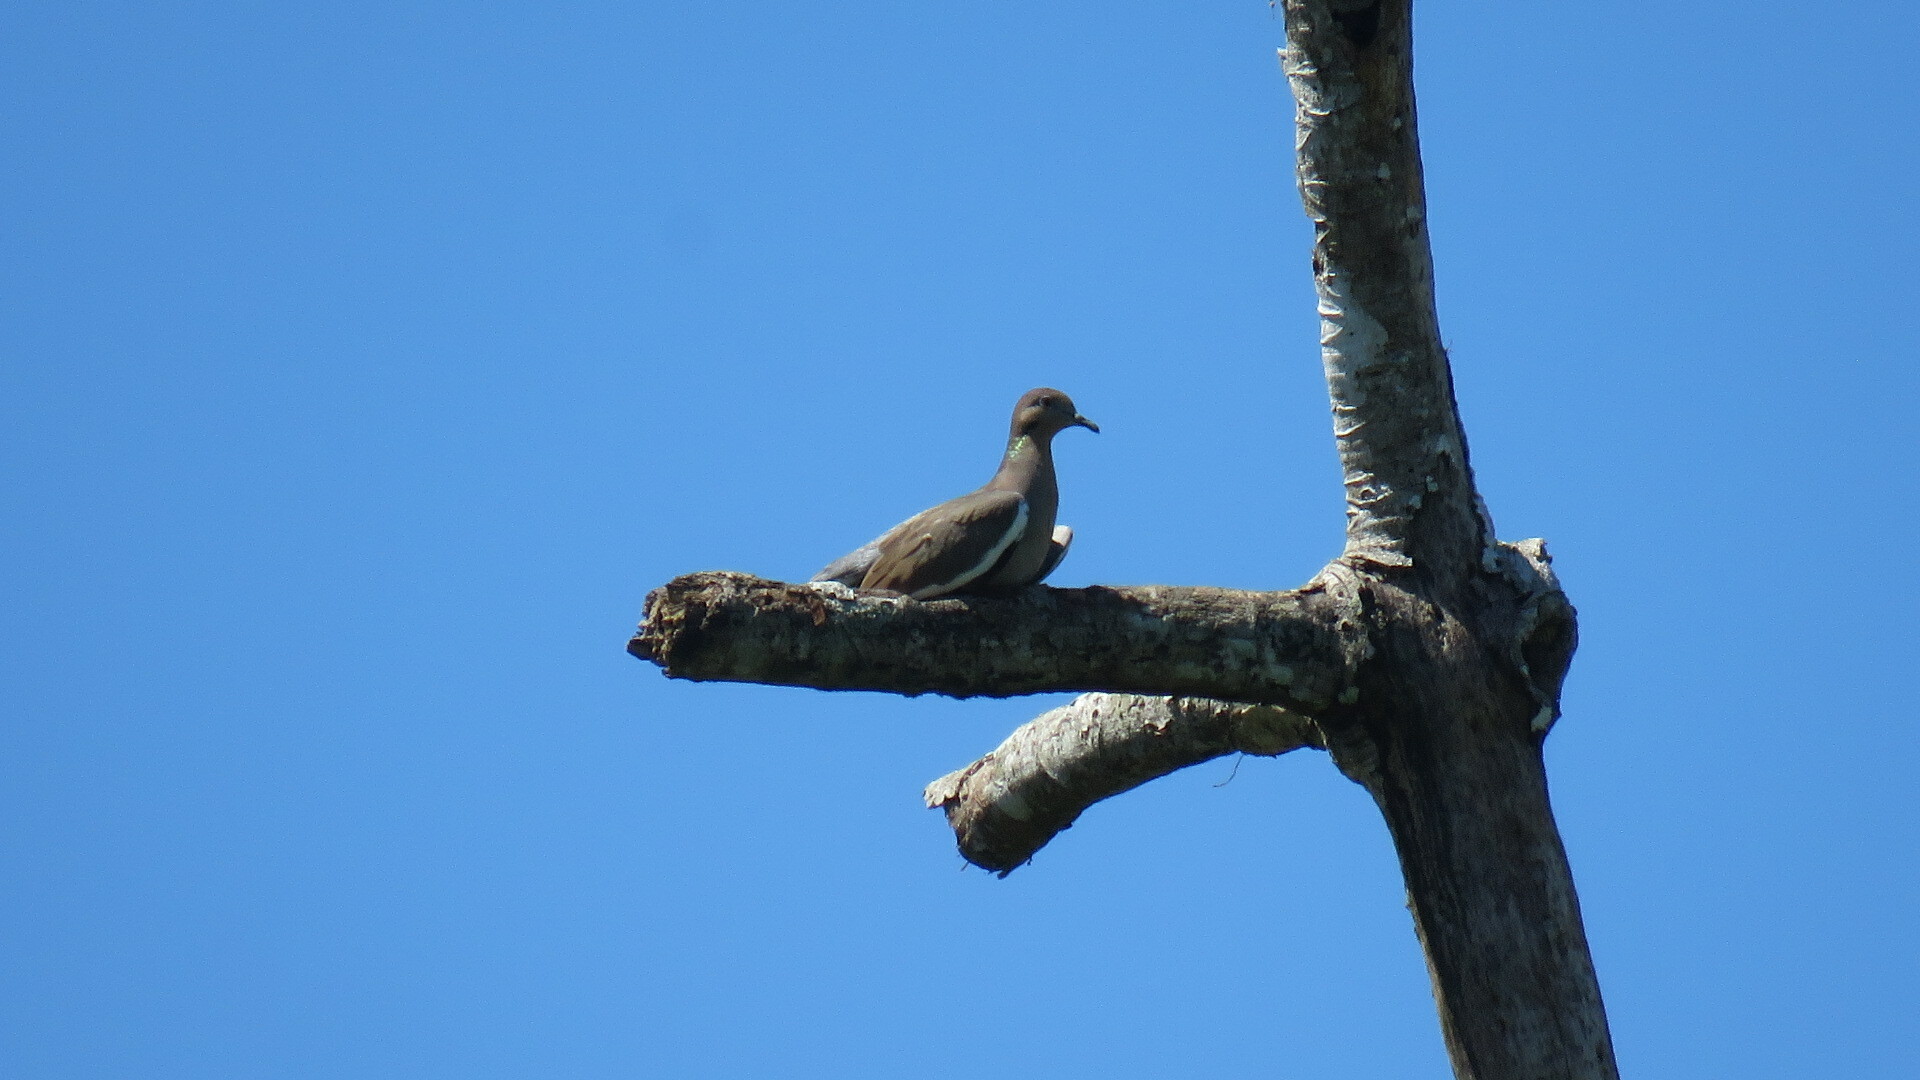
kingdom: Animalia
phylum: Chordata
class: Aves
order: Columbiformes
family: Columbidae
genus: Zenaida
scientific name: Zenaida asiatica
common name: White-winged dove
